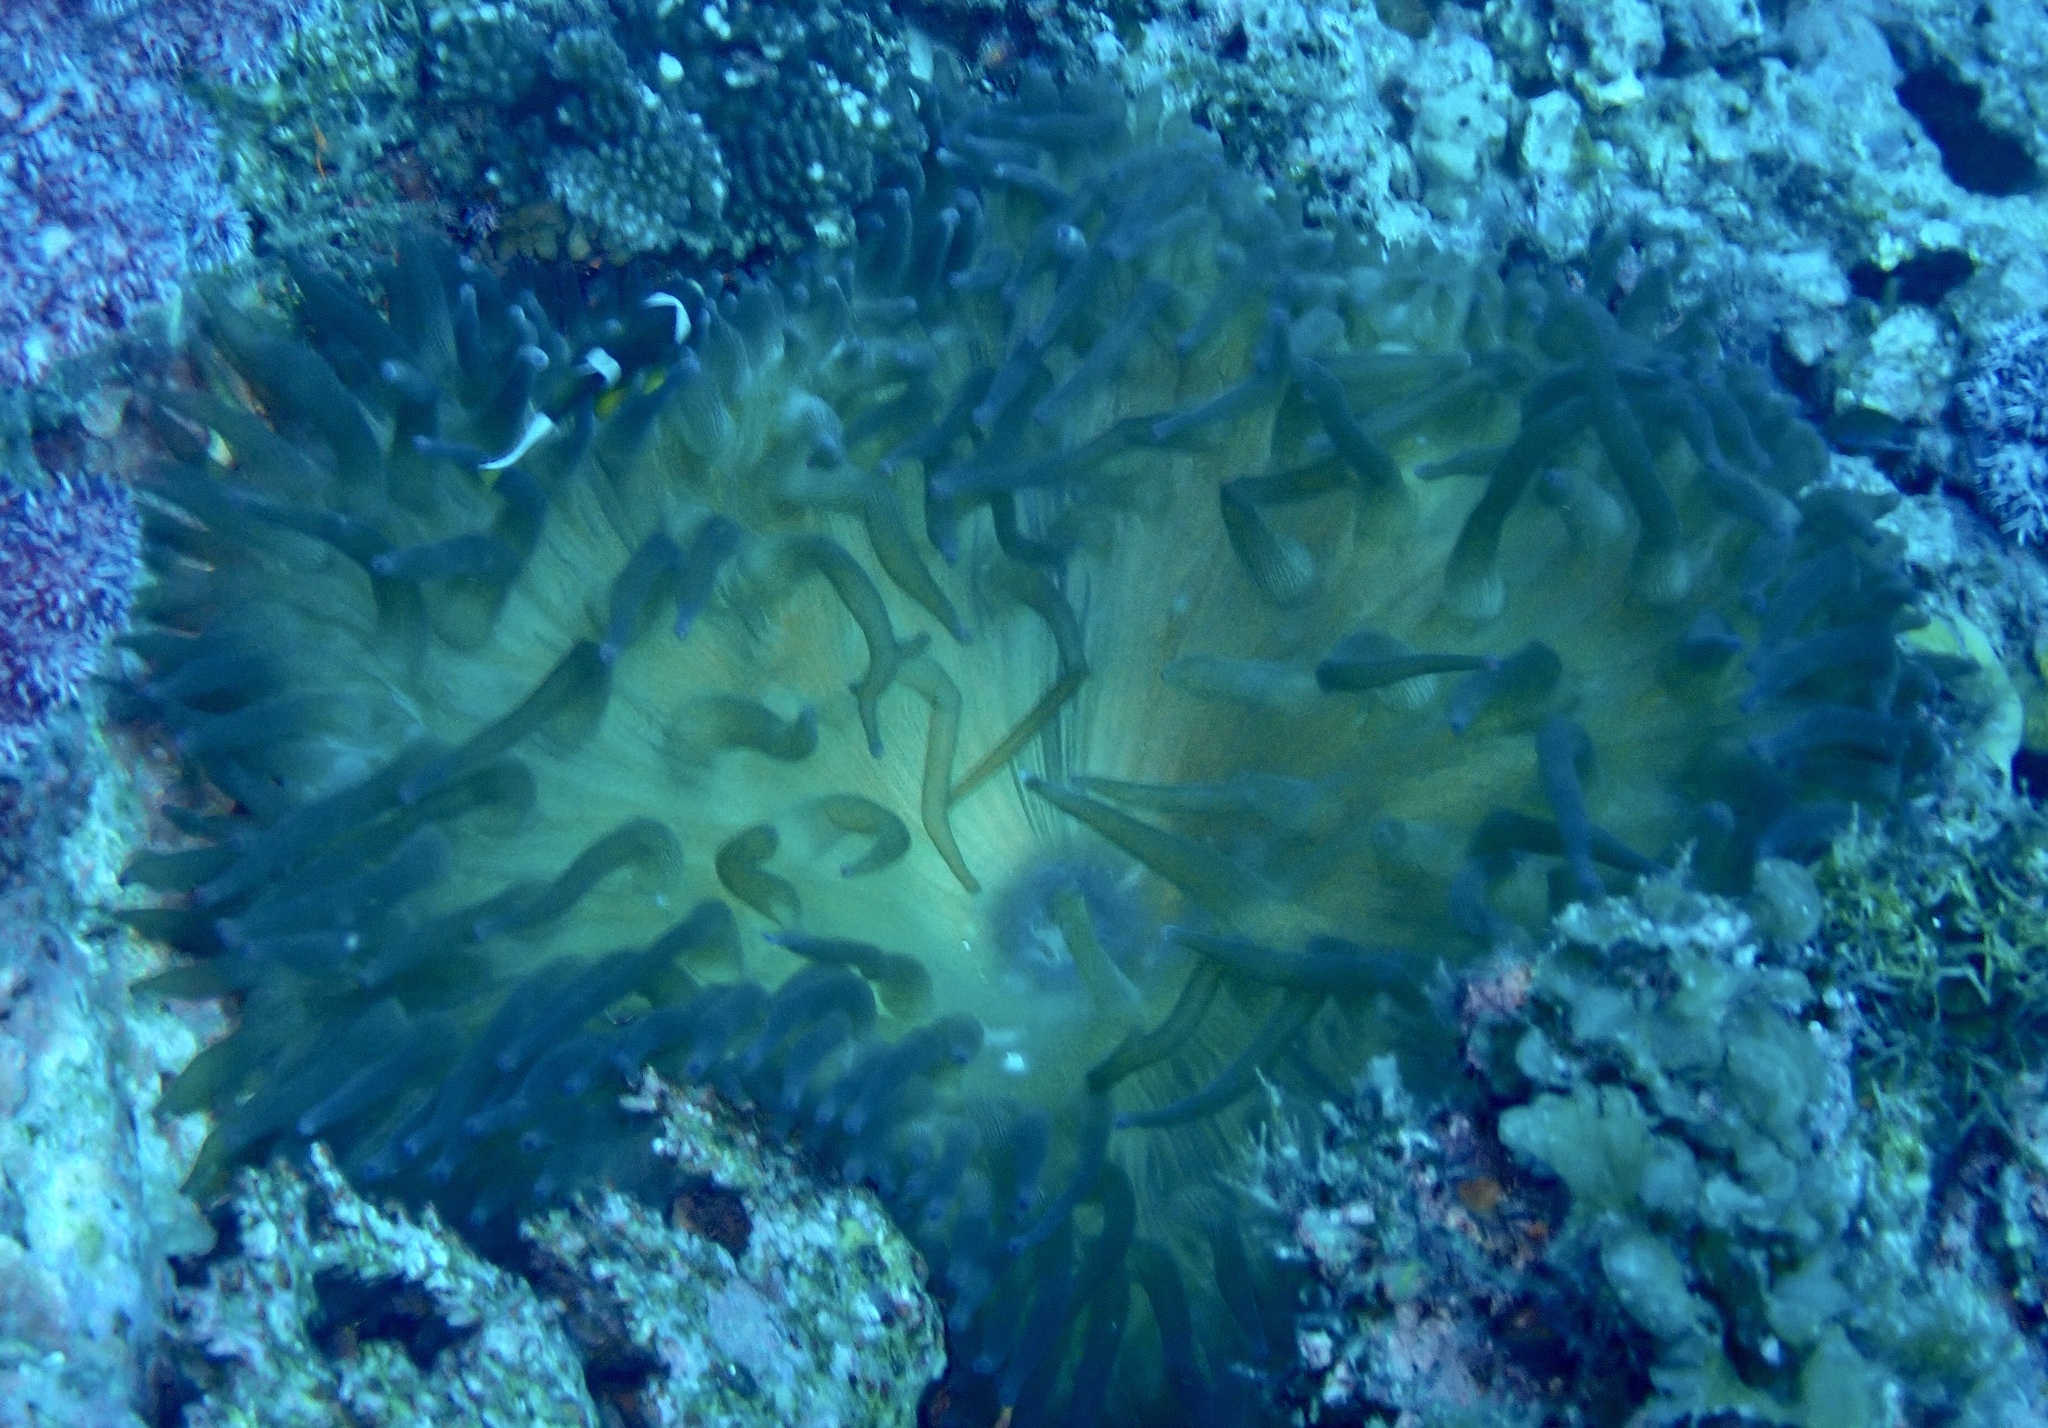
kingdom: Animalia
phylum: Cnidaria
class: Anthozoa
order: Actiniaria
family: Actiniidae
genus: Entacmaea
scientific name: Entacmaea quadricolor
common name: Bulb tentacle sea anemone
